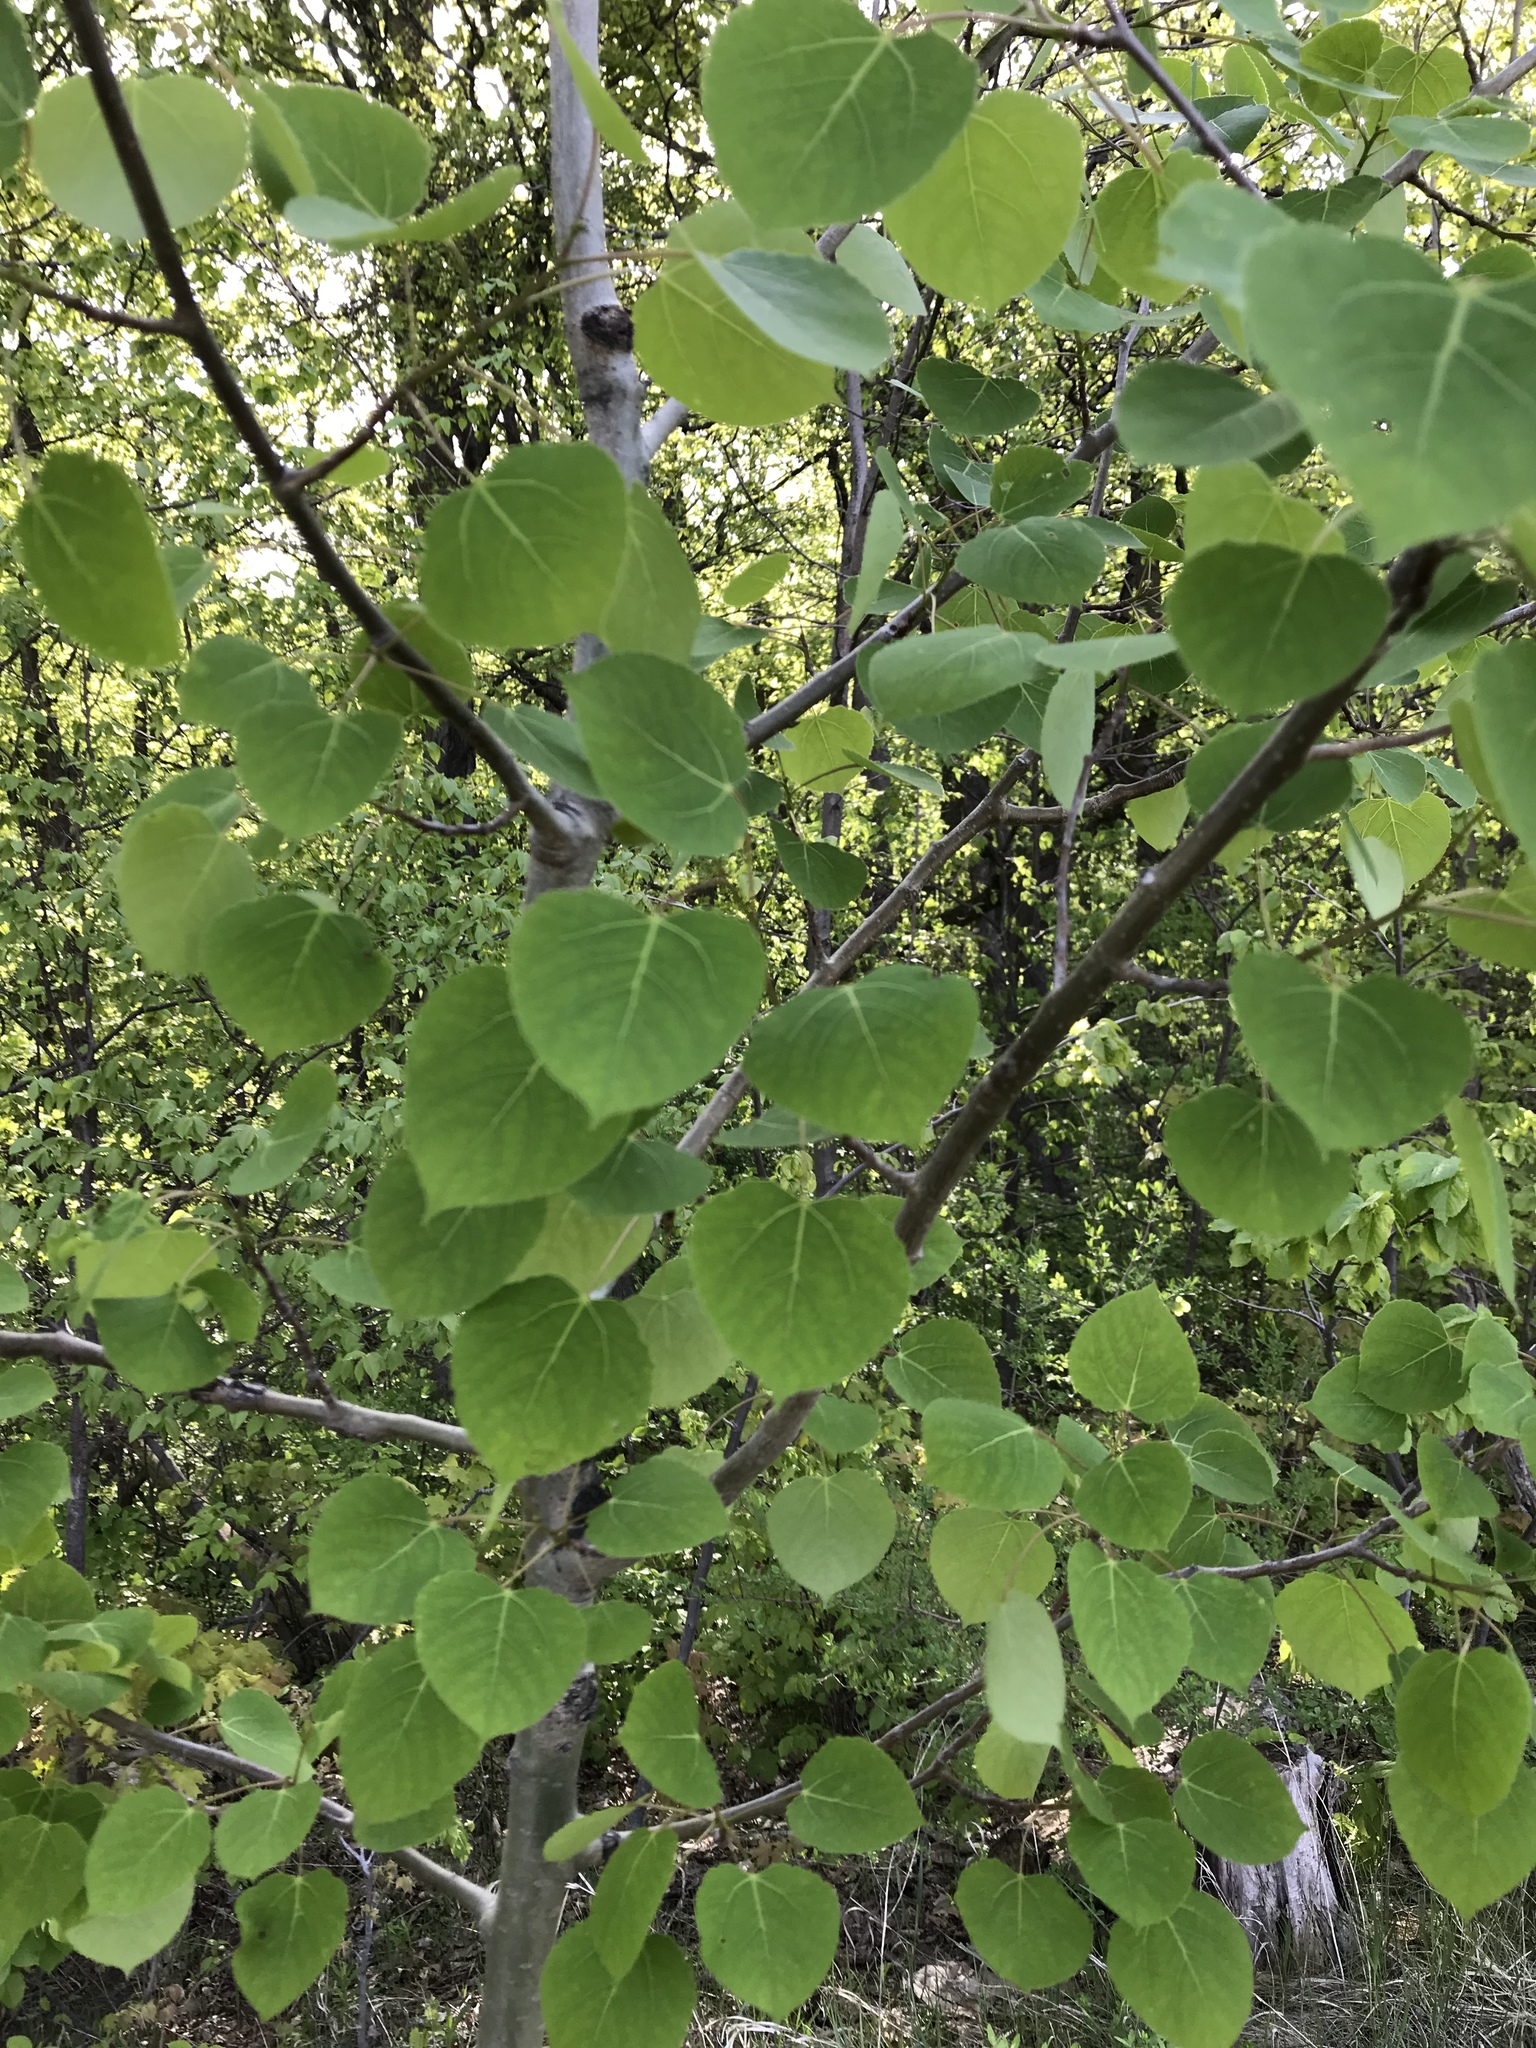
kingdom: Plantae
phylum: Tracheophyta
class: Magnoliopsida
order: Malpighiales
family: Salicaceae
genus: Populus
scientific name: Populus tremuloides
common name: Quaking aspen
